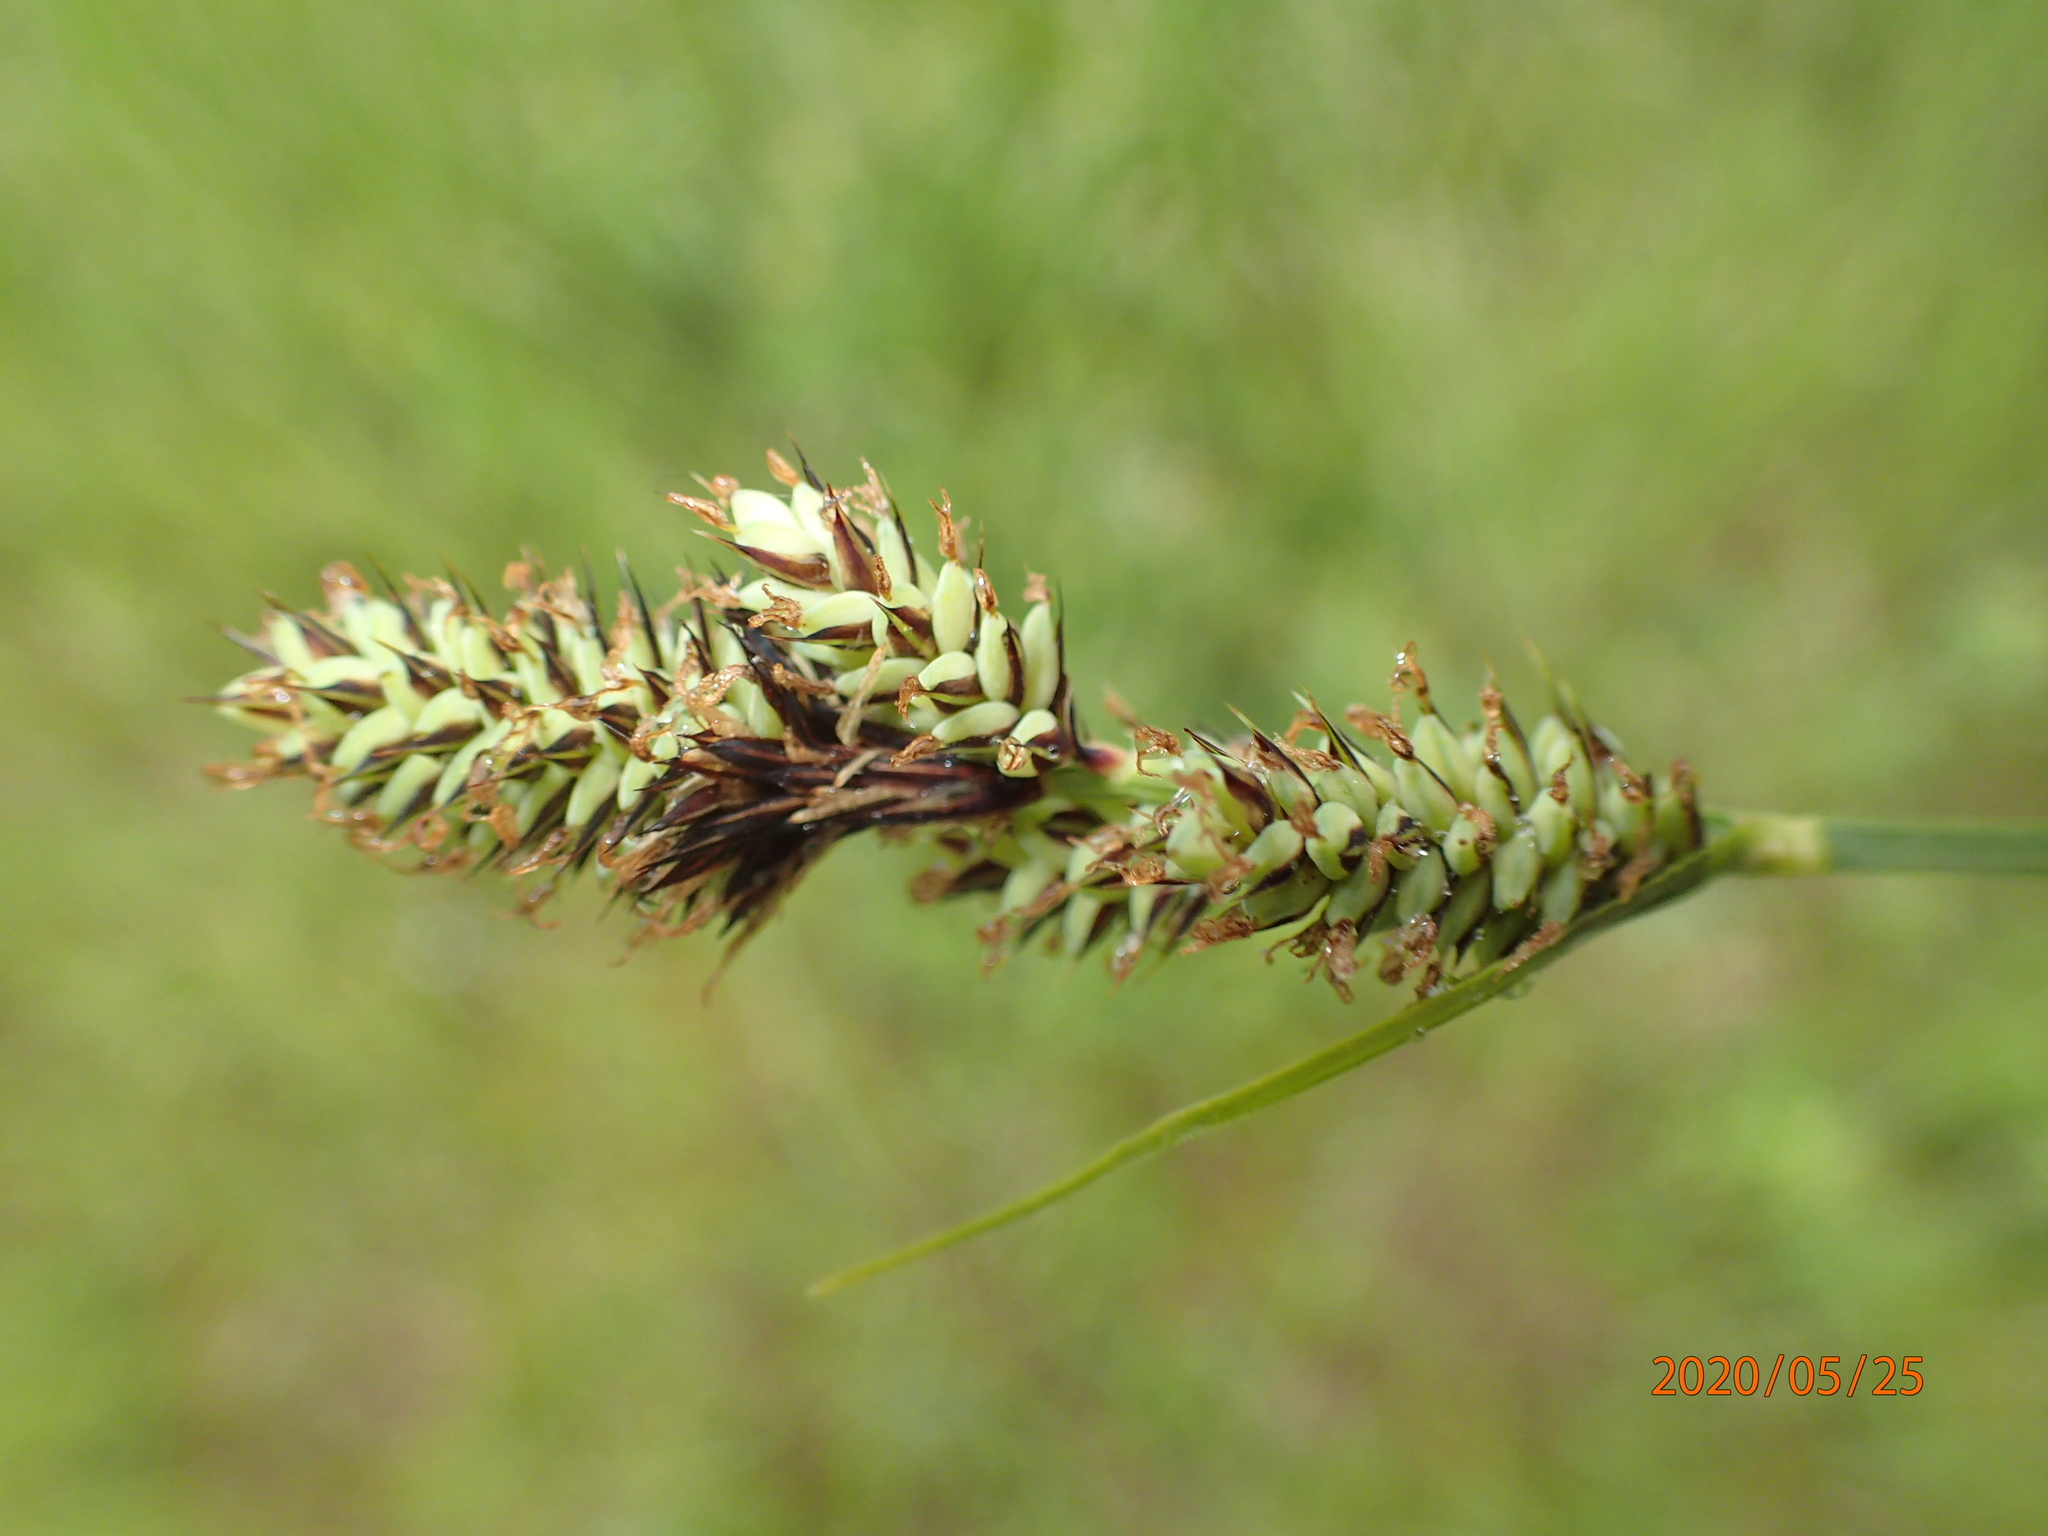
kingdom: Plantae
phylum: Tracheophyta
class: Liliopsida
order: Poales
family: Cyperaceae
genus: Carex
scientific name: Carex buxbaumii
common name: Club sedge
